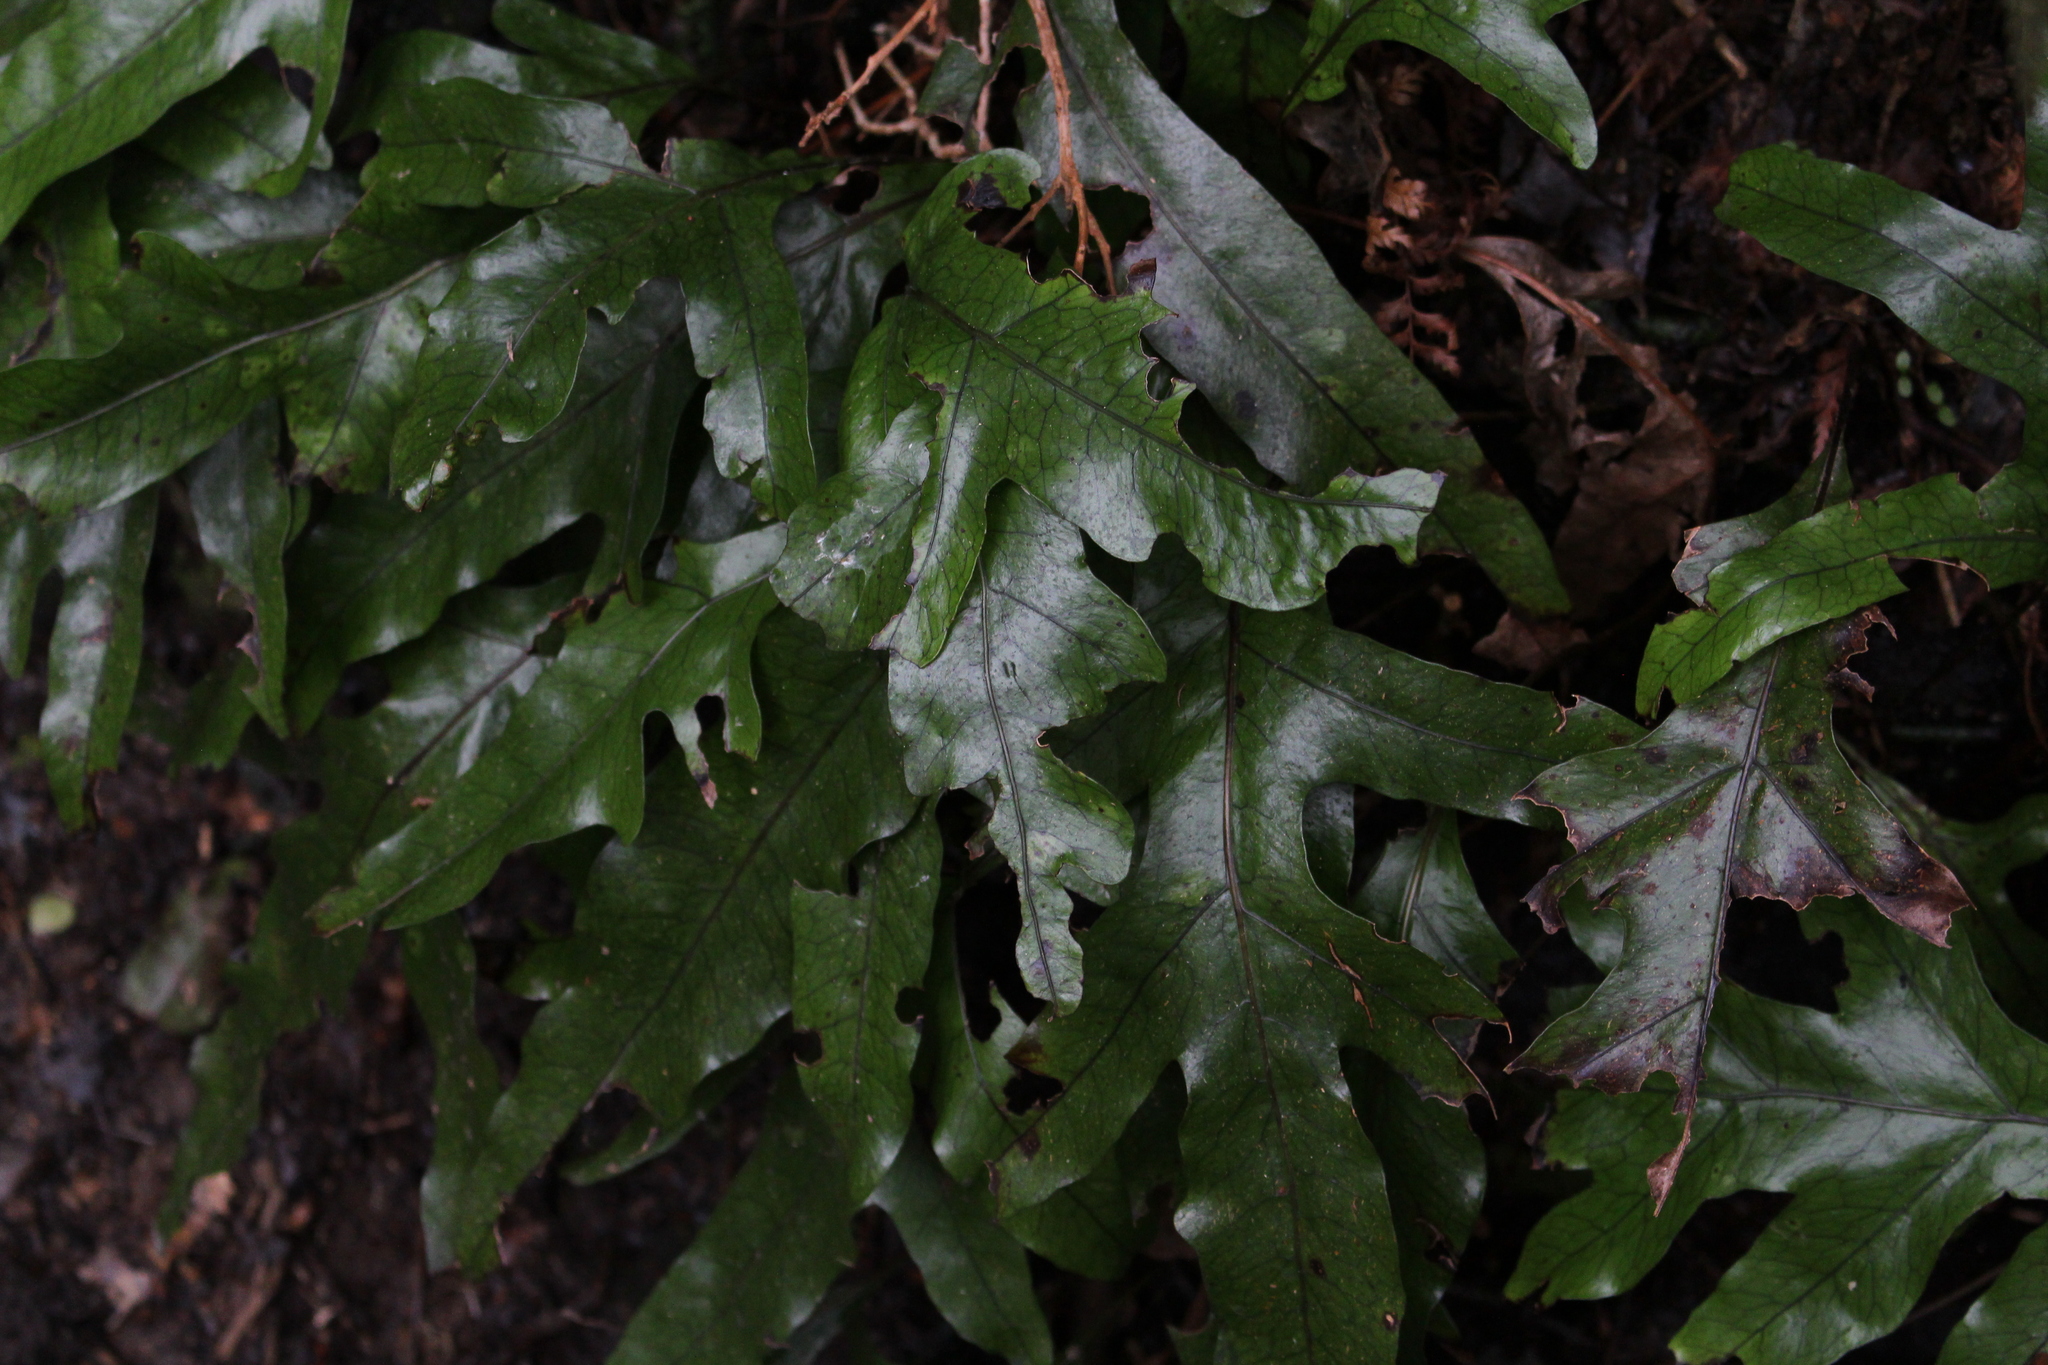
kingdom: Plantae
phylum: Tracheophyta
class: Polypodiopsida
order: Polypodiales
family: Polypodiaceae
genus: Lecanopteris
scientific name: Lecanopteris pustulata
